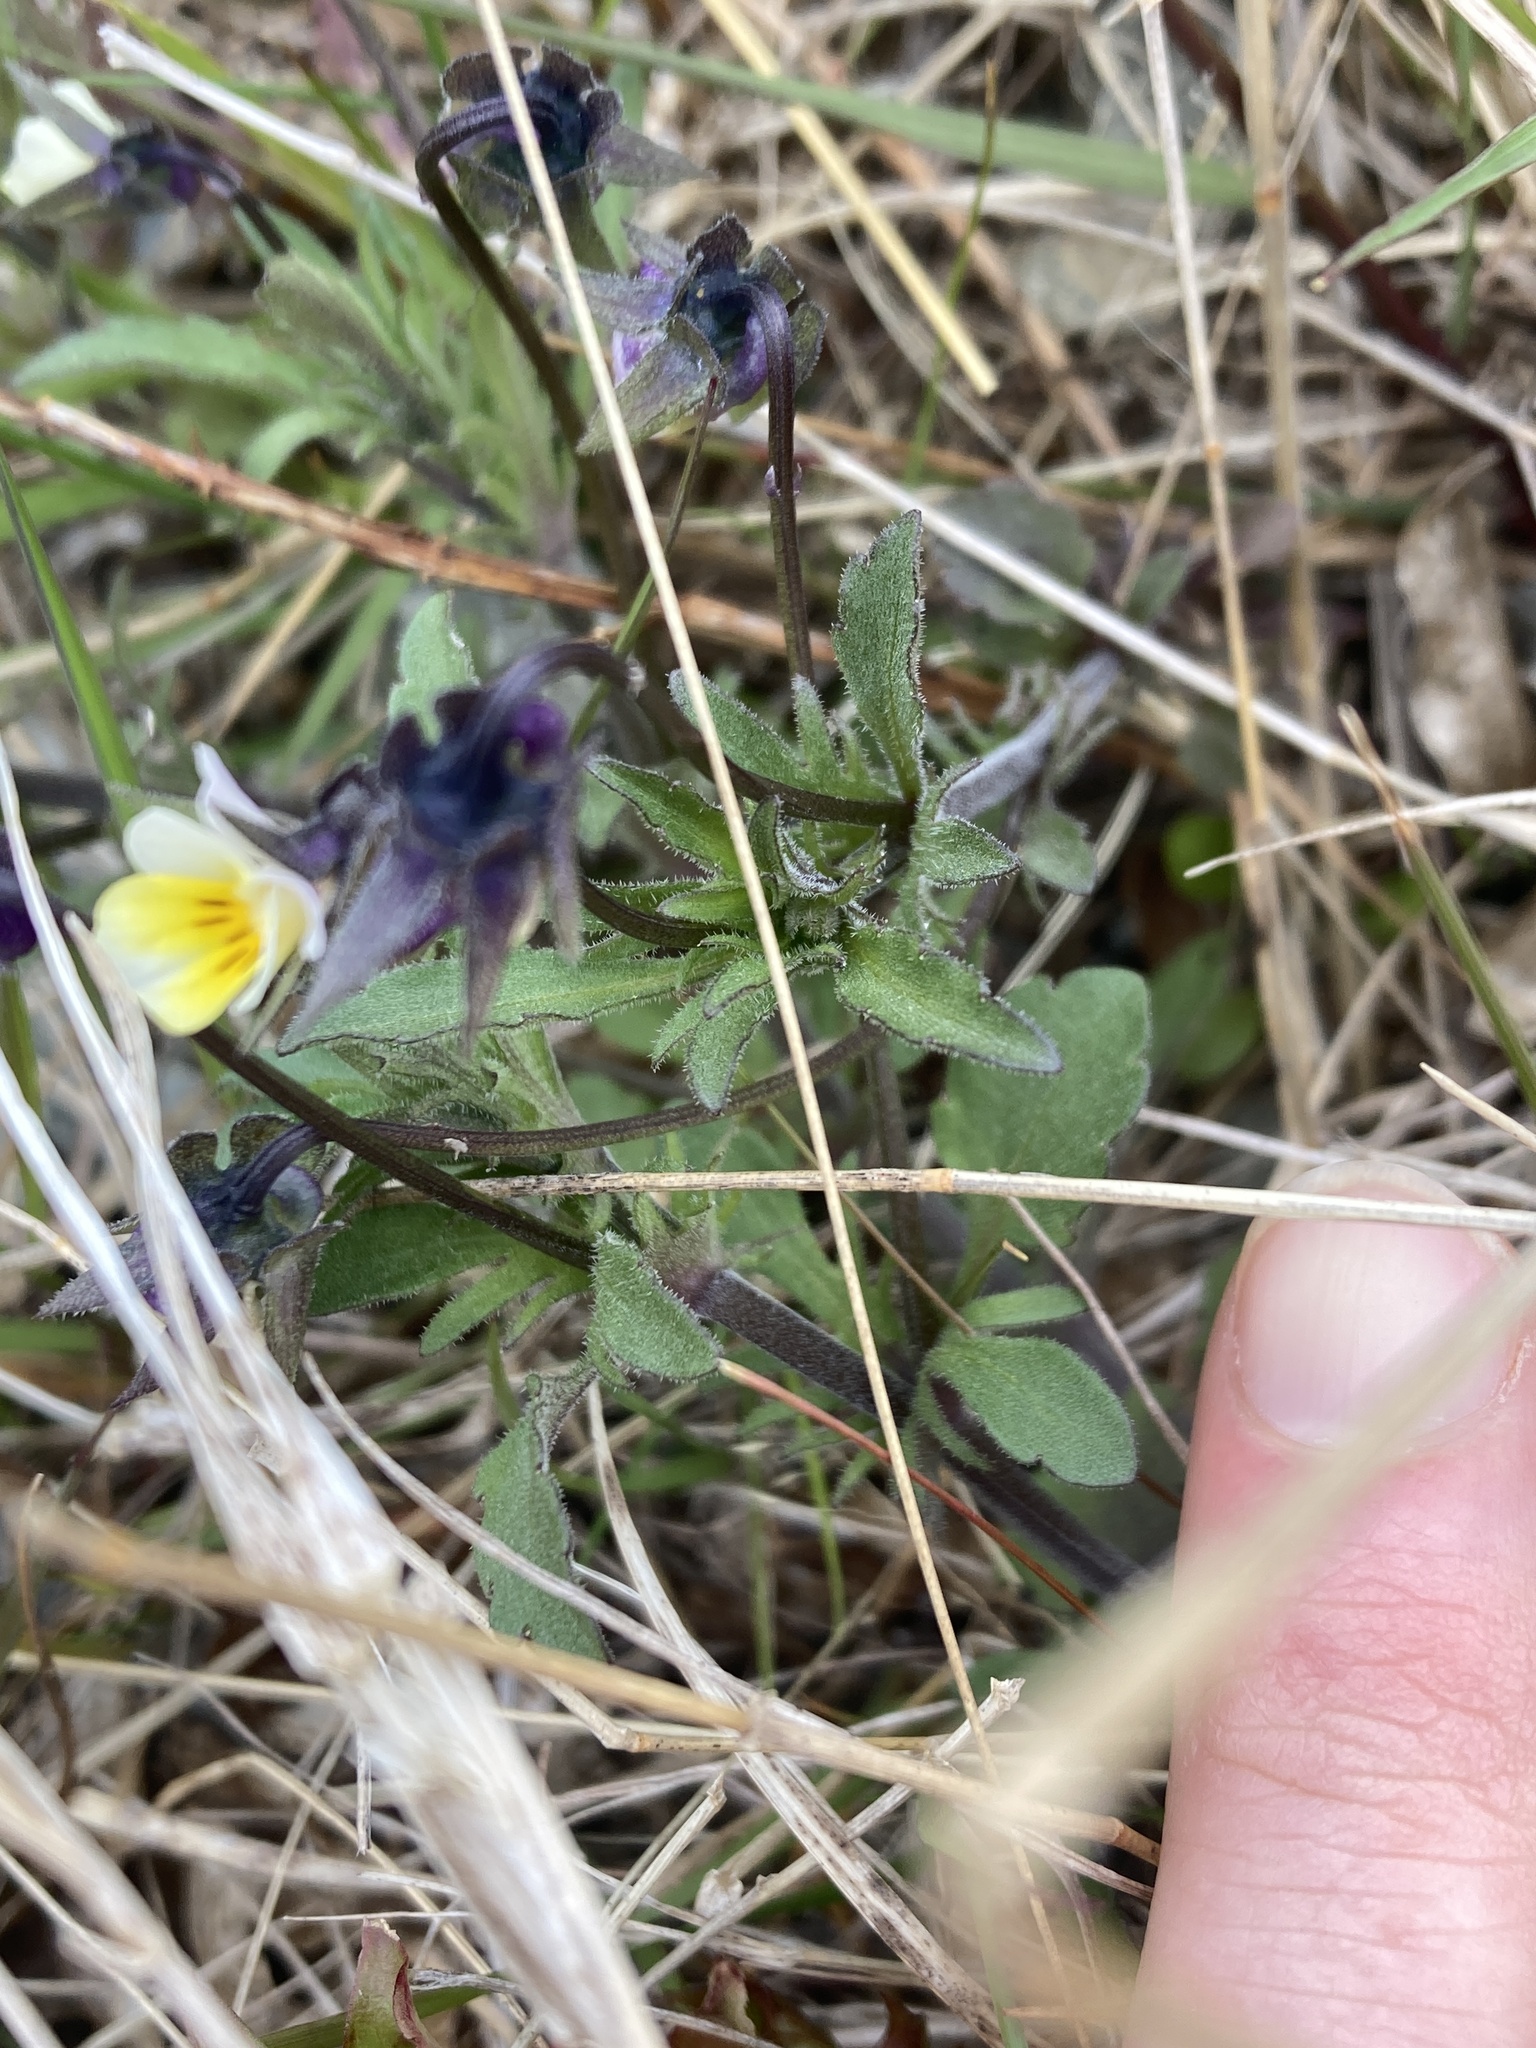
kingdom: Plantae
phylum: Tracheophyta
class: Magnoliopsida
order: Malpighiales
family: Violaceae
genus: Viola
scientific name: Viola arvensis
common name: Field pansy
